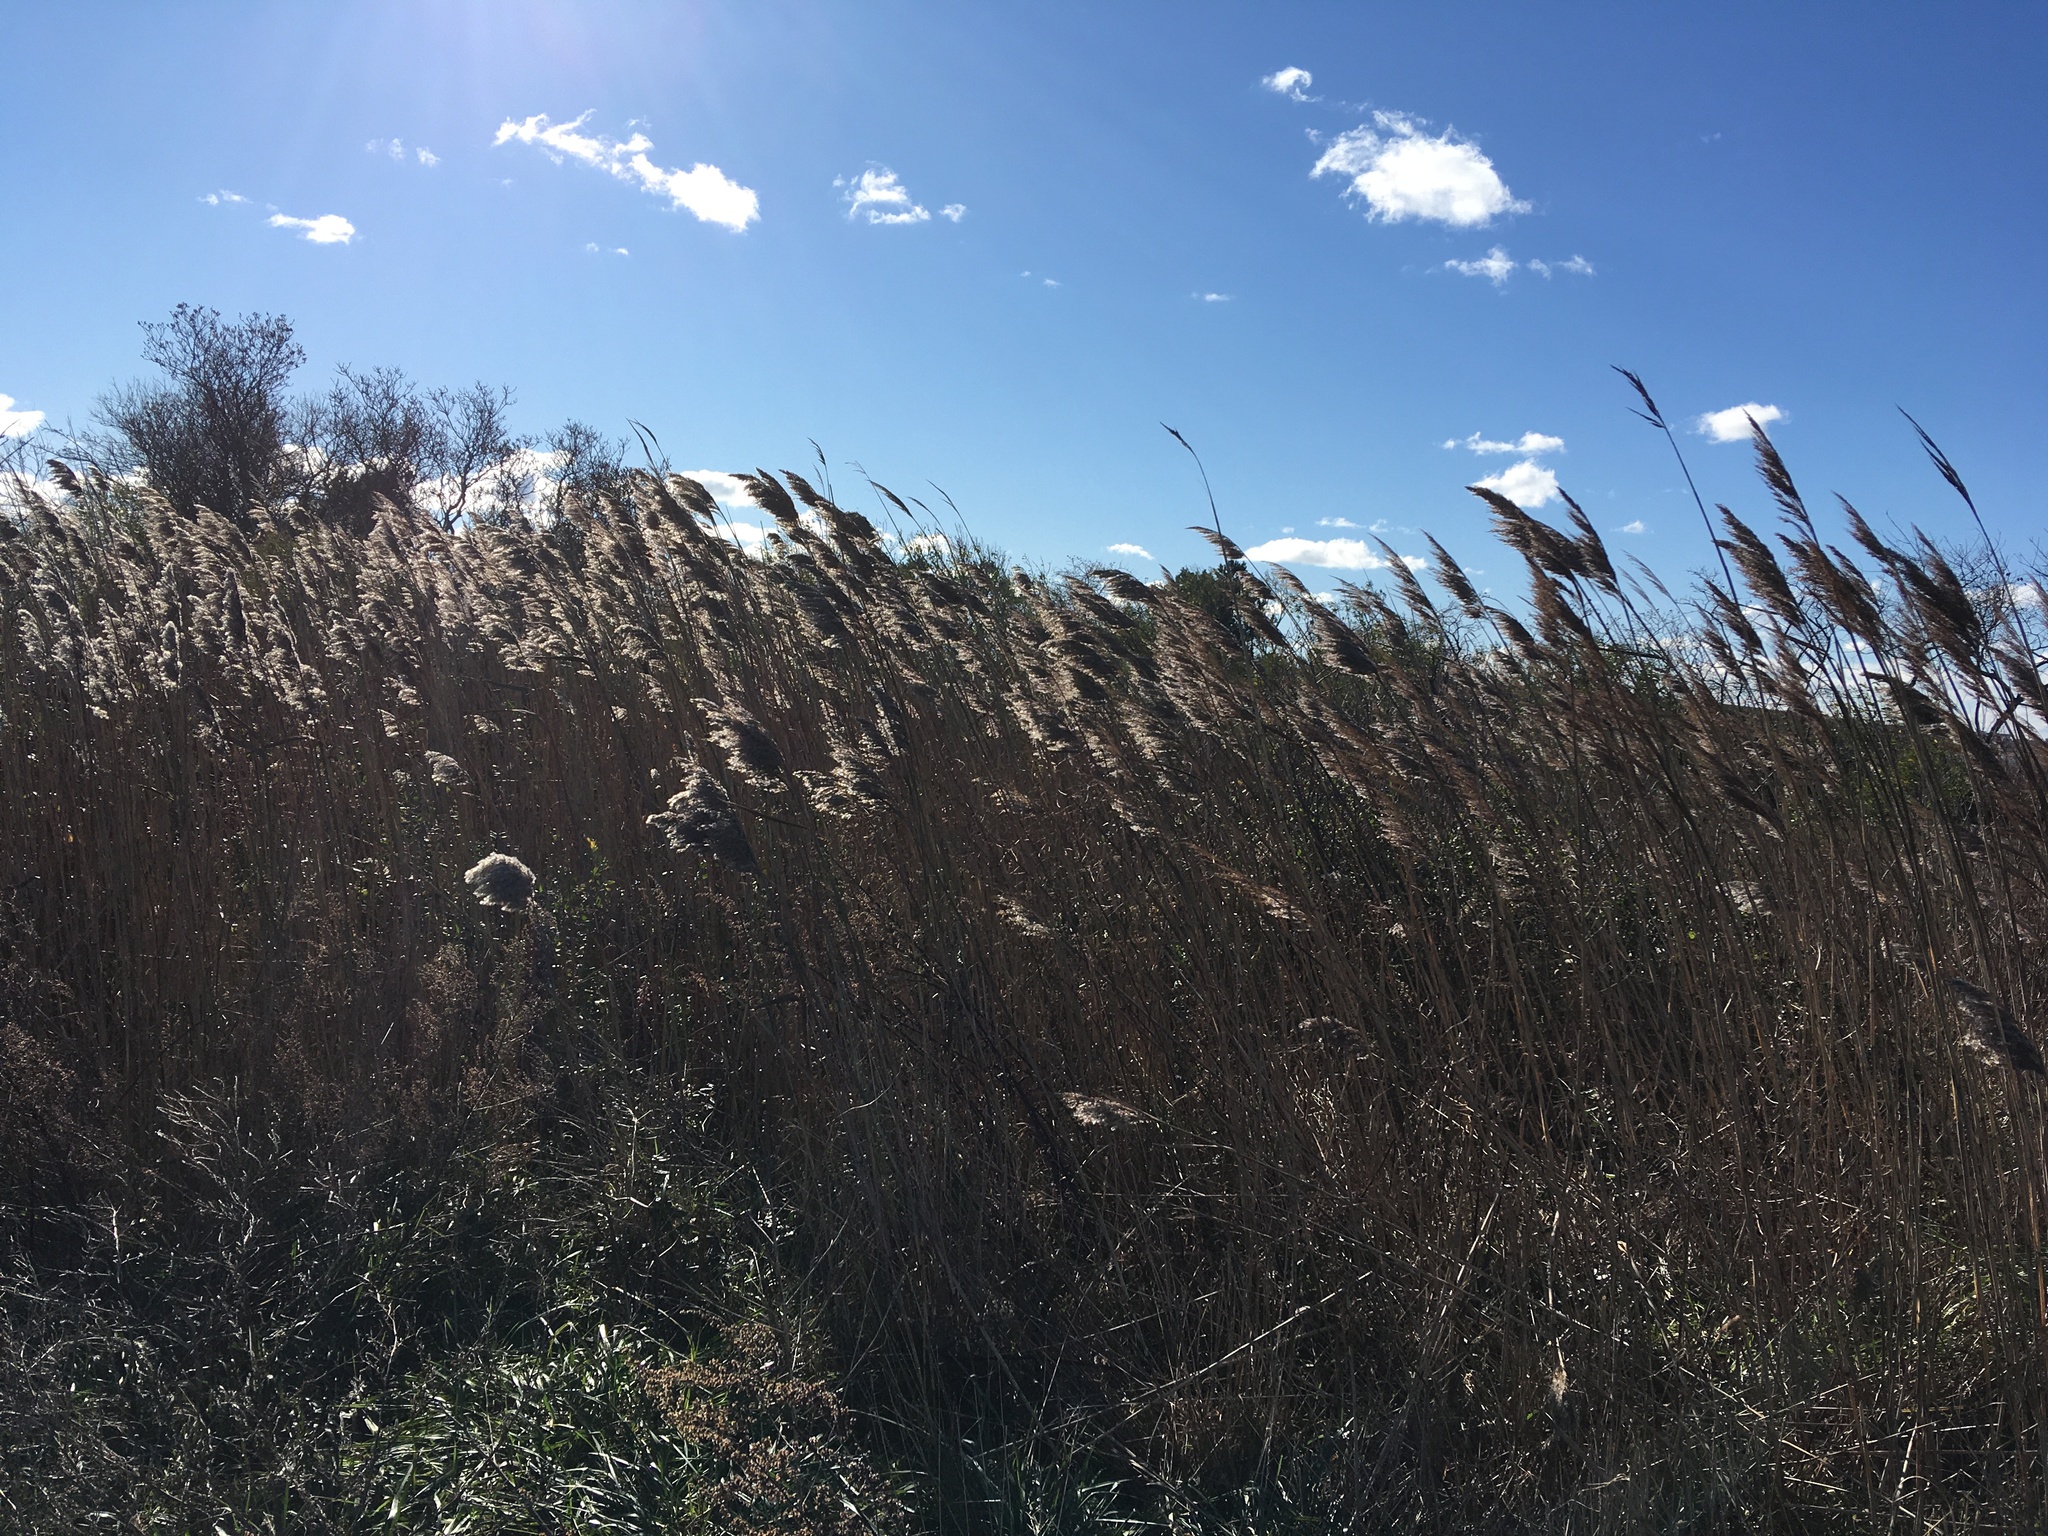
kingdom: Plantae
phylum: Tracheophyta
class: Liliopsida
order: Poales
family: Poaceae
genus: Phragmites
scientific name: Phragmites australis
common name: Common reed
